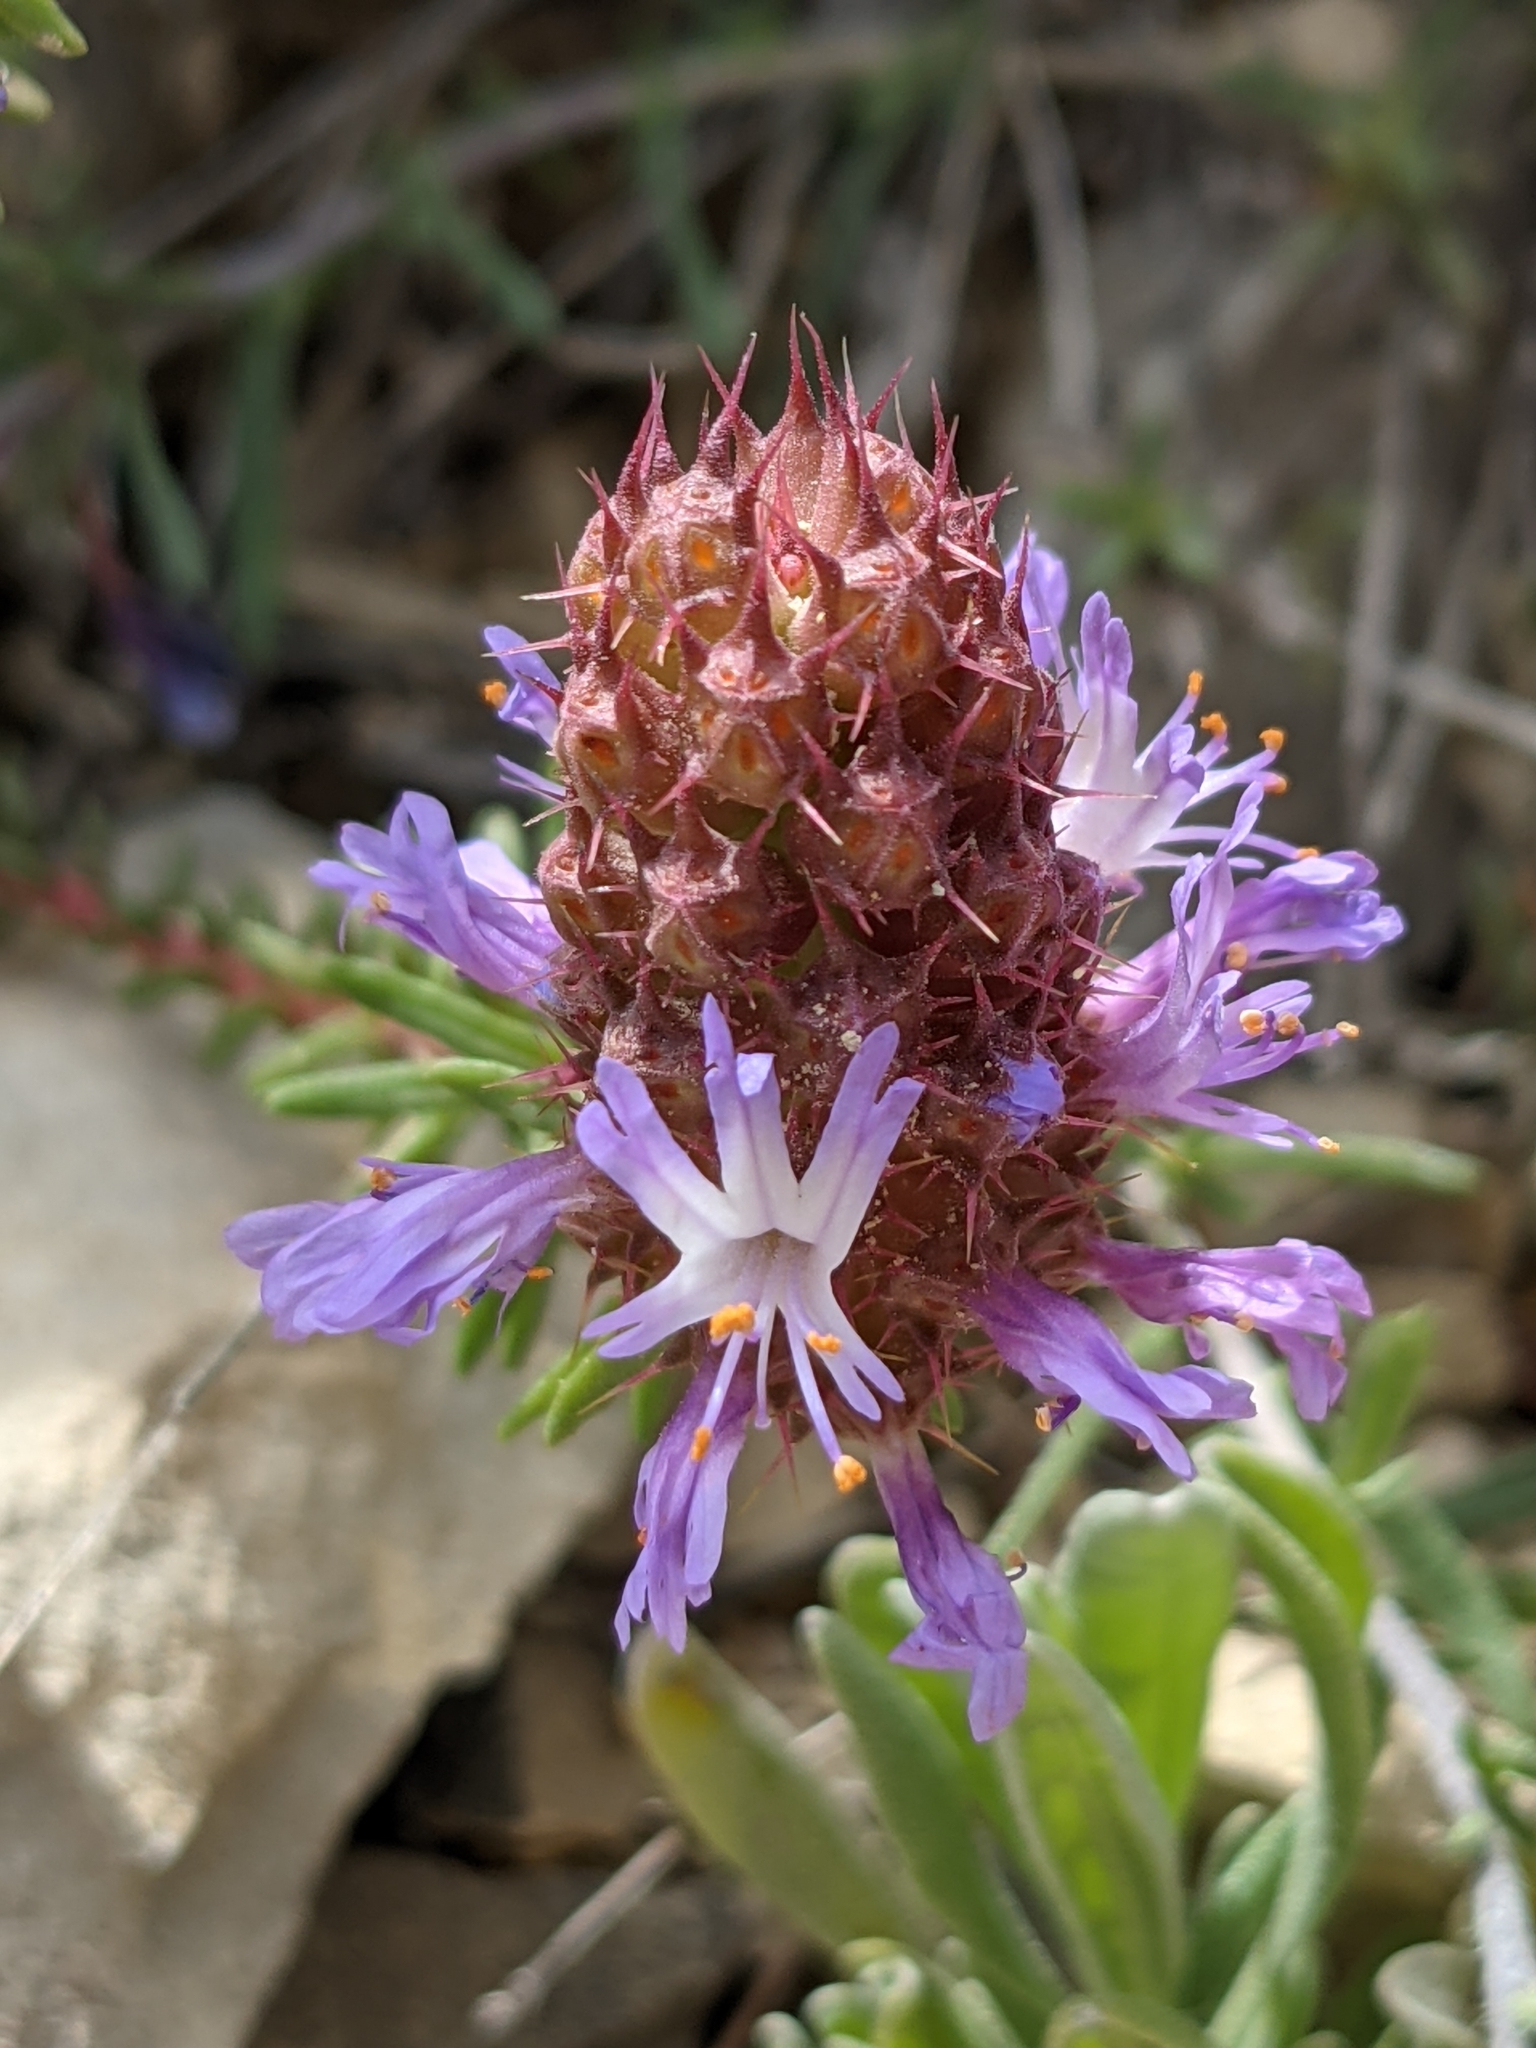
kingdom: Plantae
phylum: Tracheophyta
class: Magnoliopsida
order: Ericales
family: Primulaceae
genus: Coris
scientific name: Coris monspeliensis
